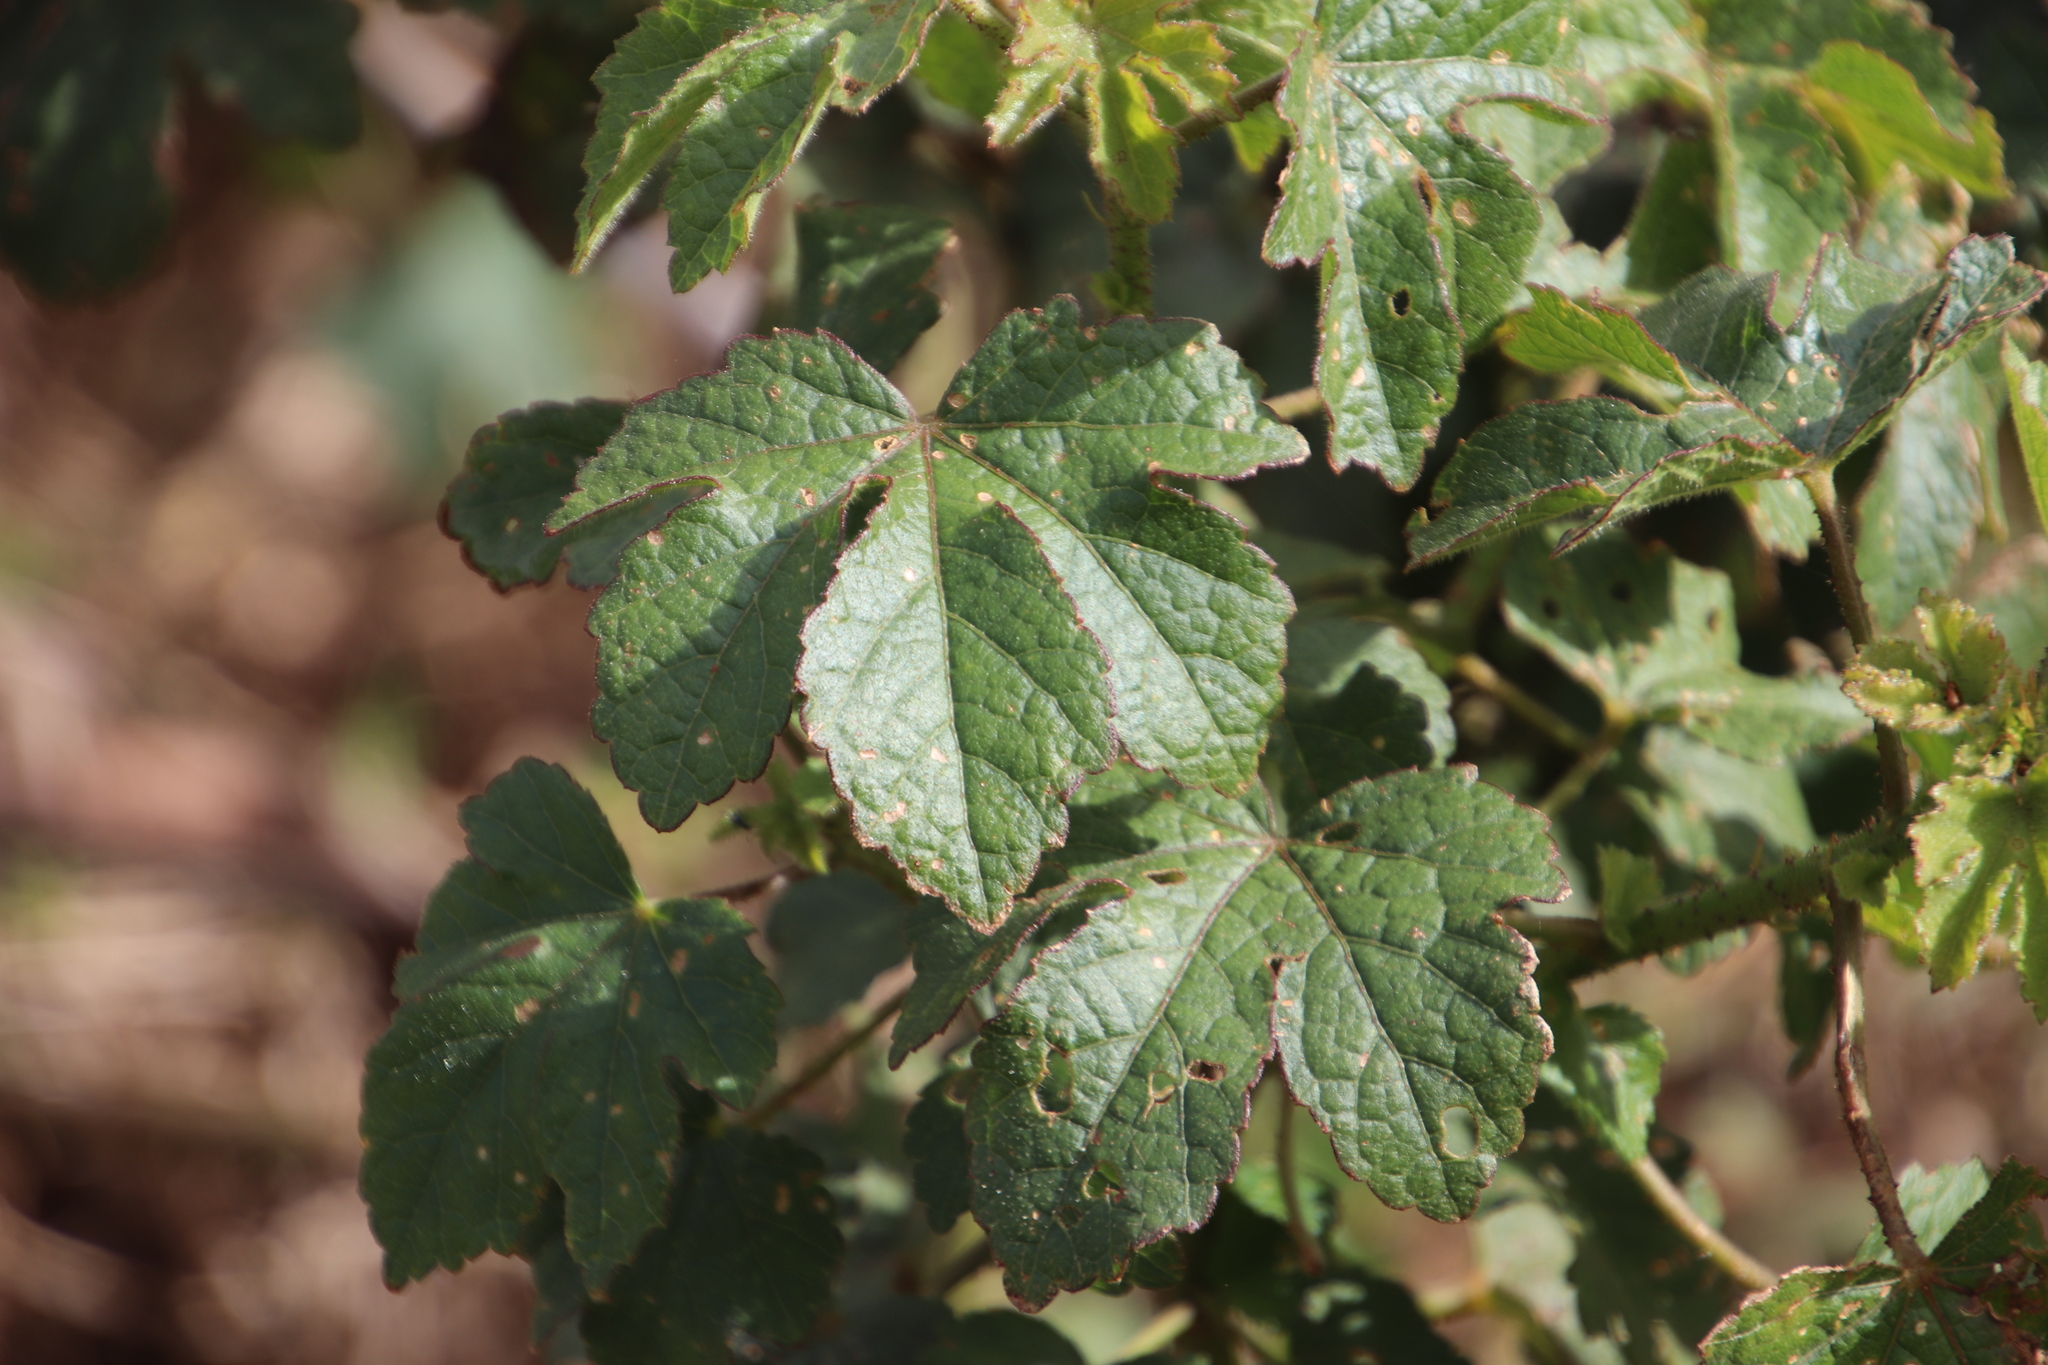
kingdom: Plantae
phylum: Tracheophyta
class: Magnoliopsida
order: Malvales
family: Malvaceae
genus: Hibiscus
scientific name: Hibiscus diversifolius
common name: Cape hibiscus
